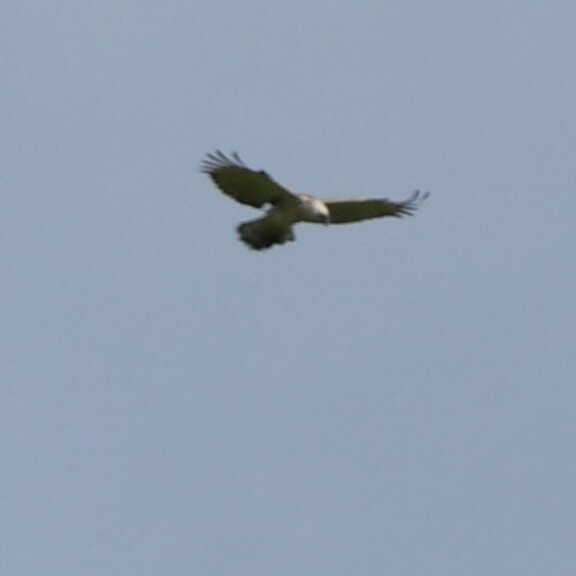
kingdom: Animalia
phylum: Chordata
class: Aves
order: Accipitriformes
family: Accipitridae
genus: Circaetus
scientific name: Circaetus gallicus
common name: Short-toed snake eagle
